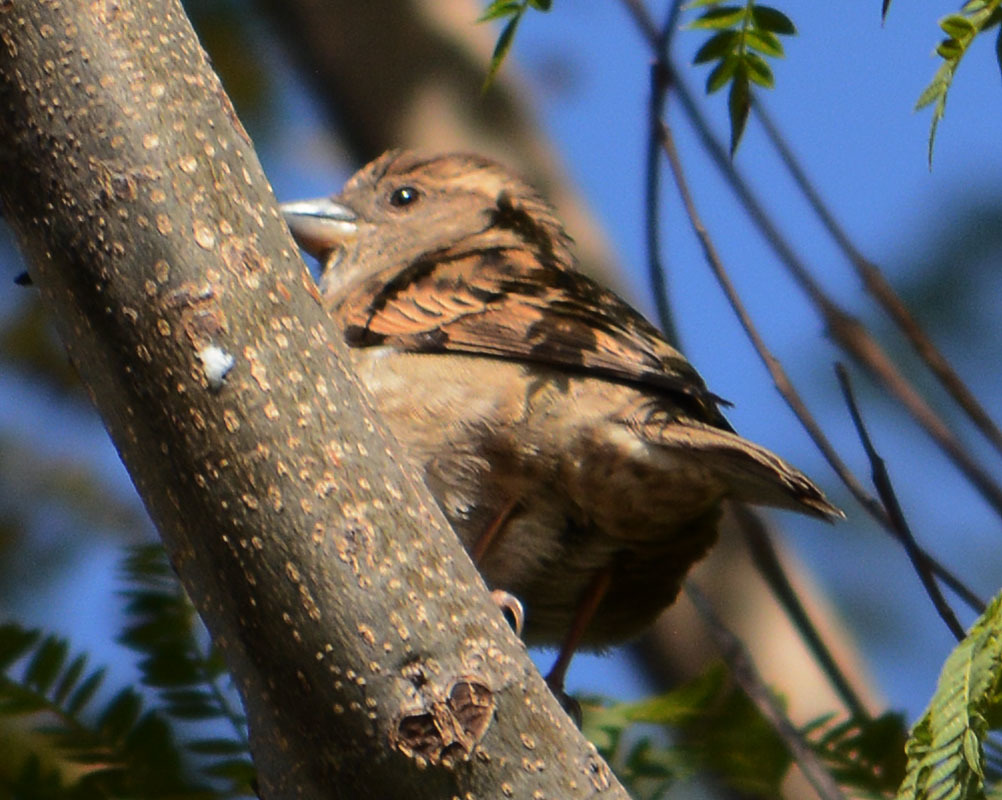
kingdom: Animalia
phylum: Chordata
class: Aves
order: Passeriformes
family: Passeridae
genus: Passer
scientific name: Passer domesticus
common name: House sparrow
